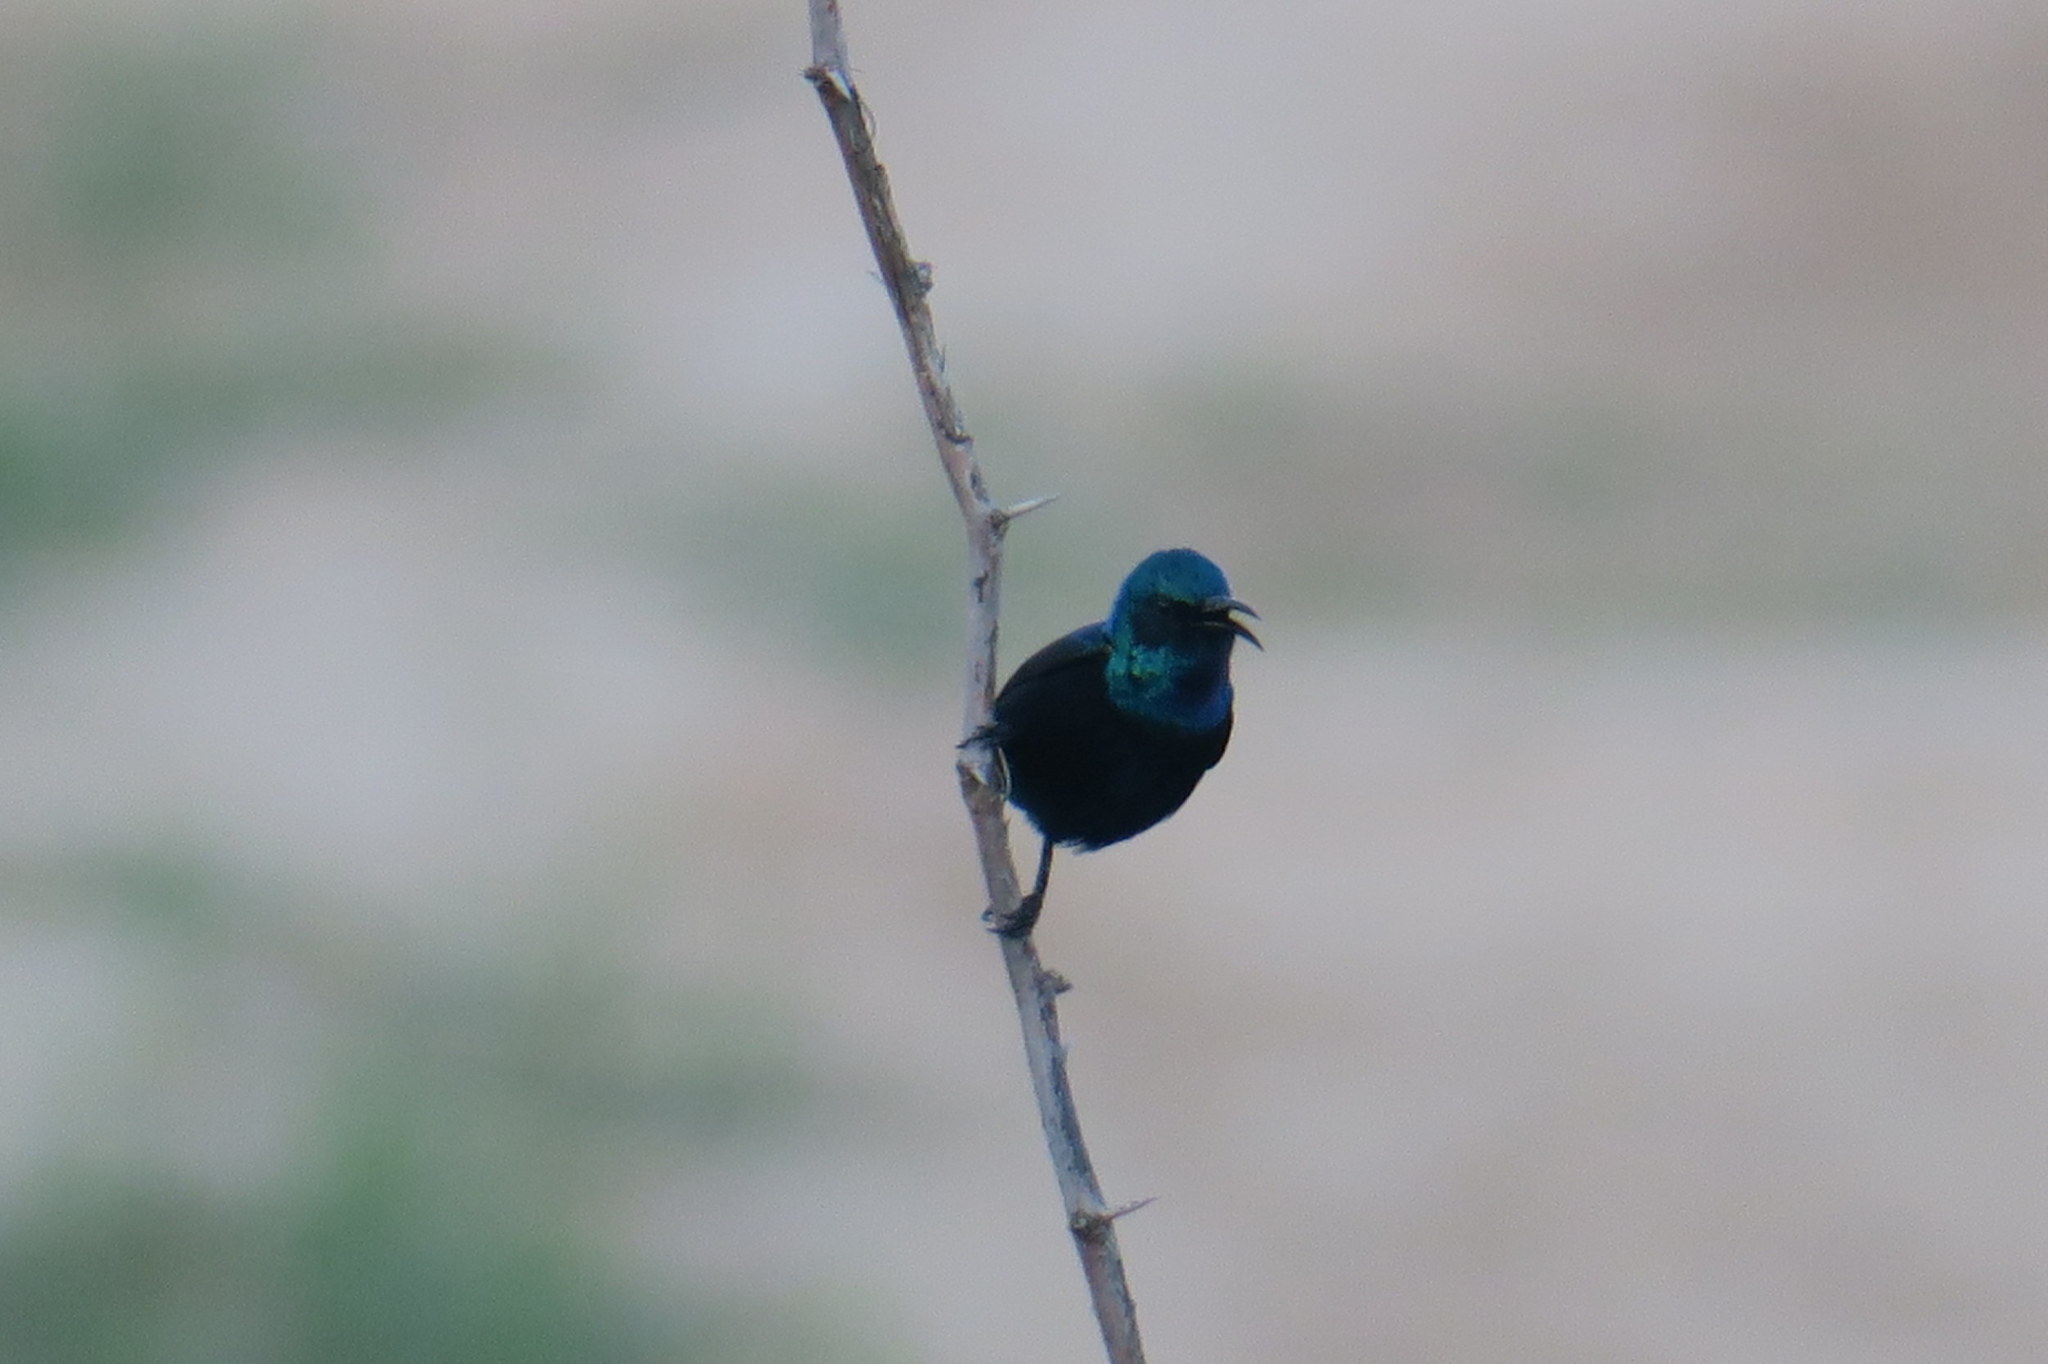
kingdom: Animalia
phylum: Chordata
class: Aves
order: Passeriformes
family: Nectariniidae
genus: Cinnyris
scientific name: Cinnyris asiaticus
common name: Purple sunbird
